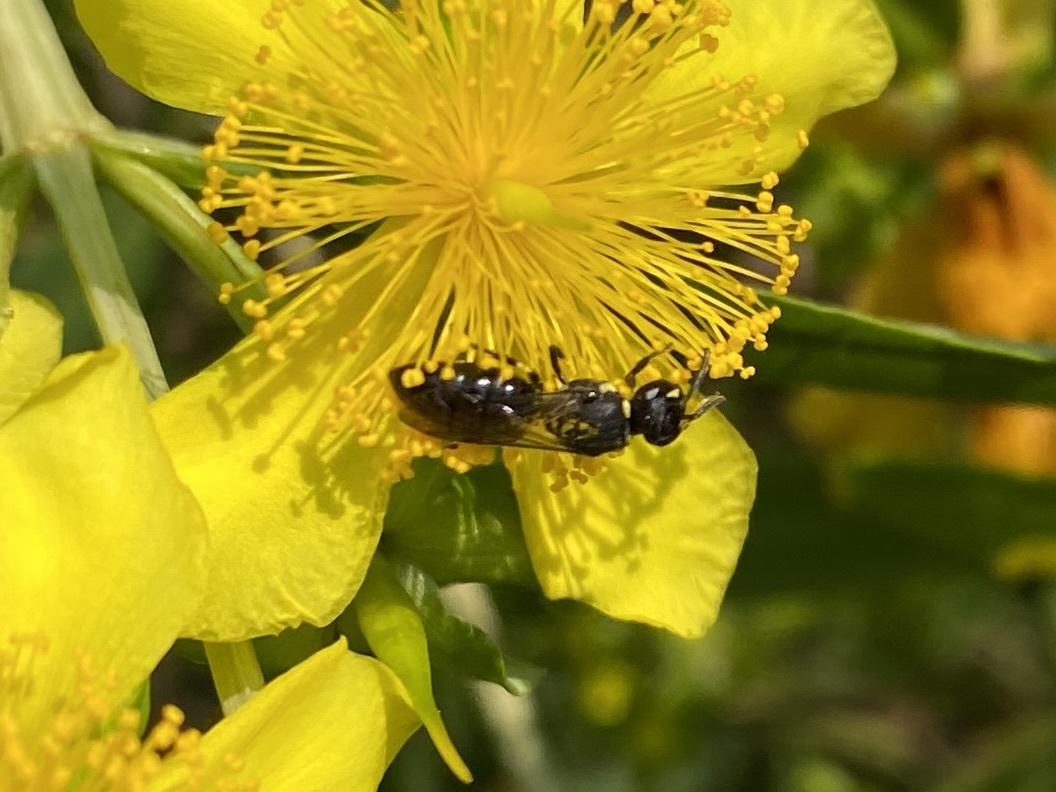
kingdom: Animalia
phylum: Arthropoda
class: Insecta
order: Hymenoptera
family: Colletidae
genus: Hylaeus
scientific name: Hylaeus modestus
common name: Yellow-faced bee
